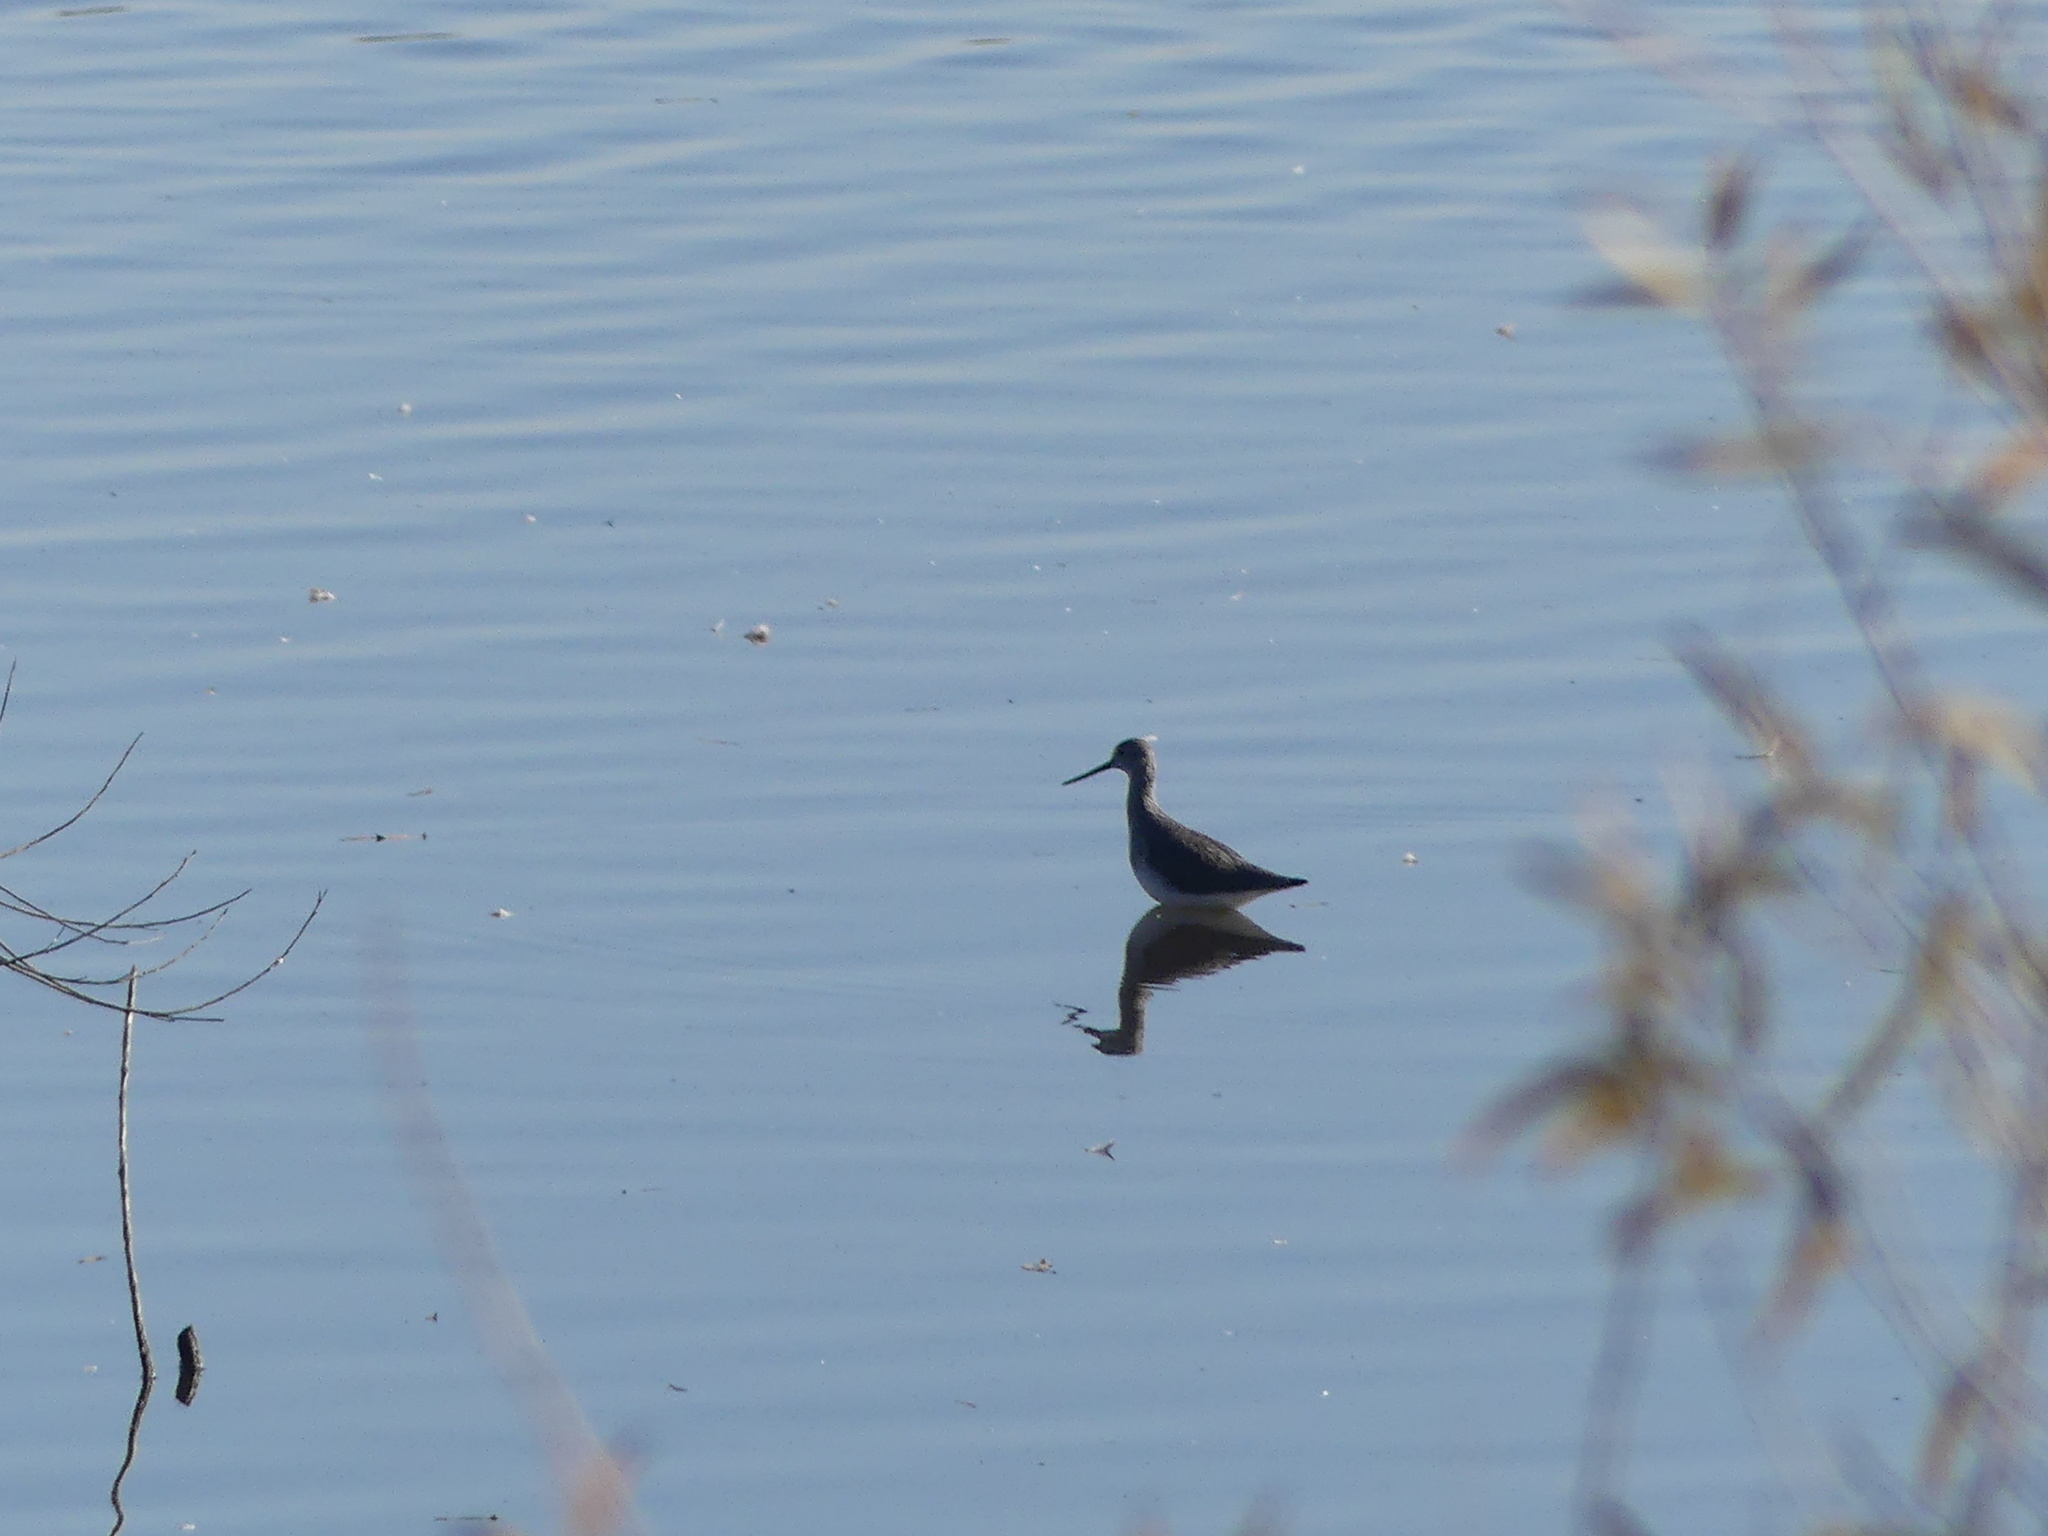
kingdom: Animalia
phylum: Chordata
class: Aves
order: Charadriiformes
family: Scolopacidae
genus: Tringa
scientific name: Tringa melanoleuca
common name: Greater yellowlegs
